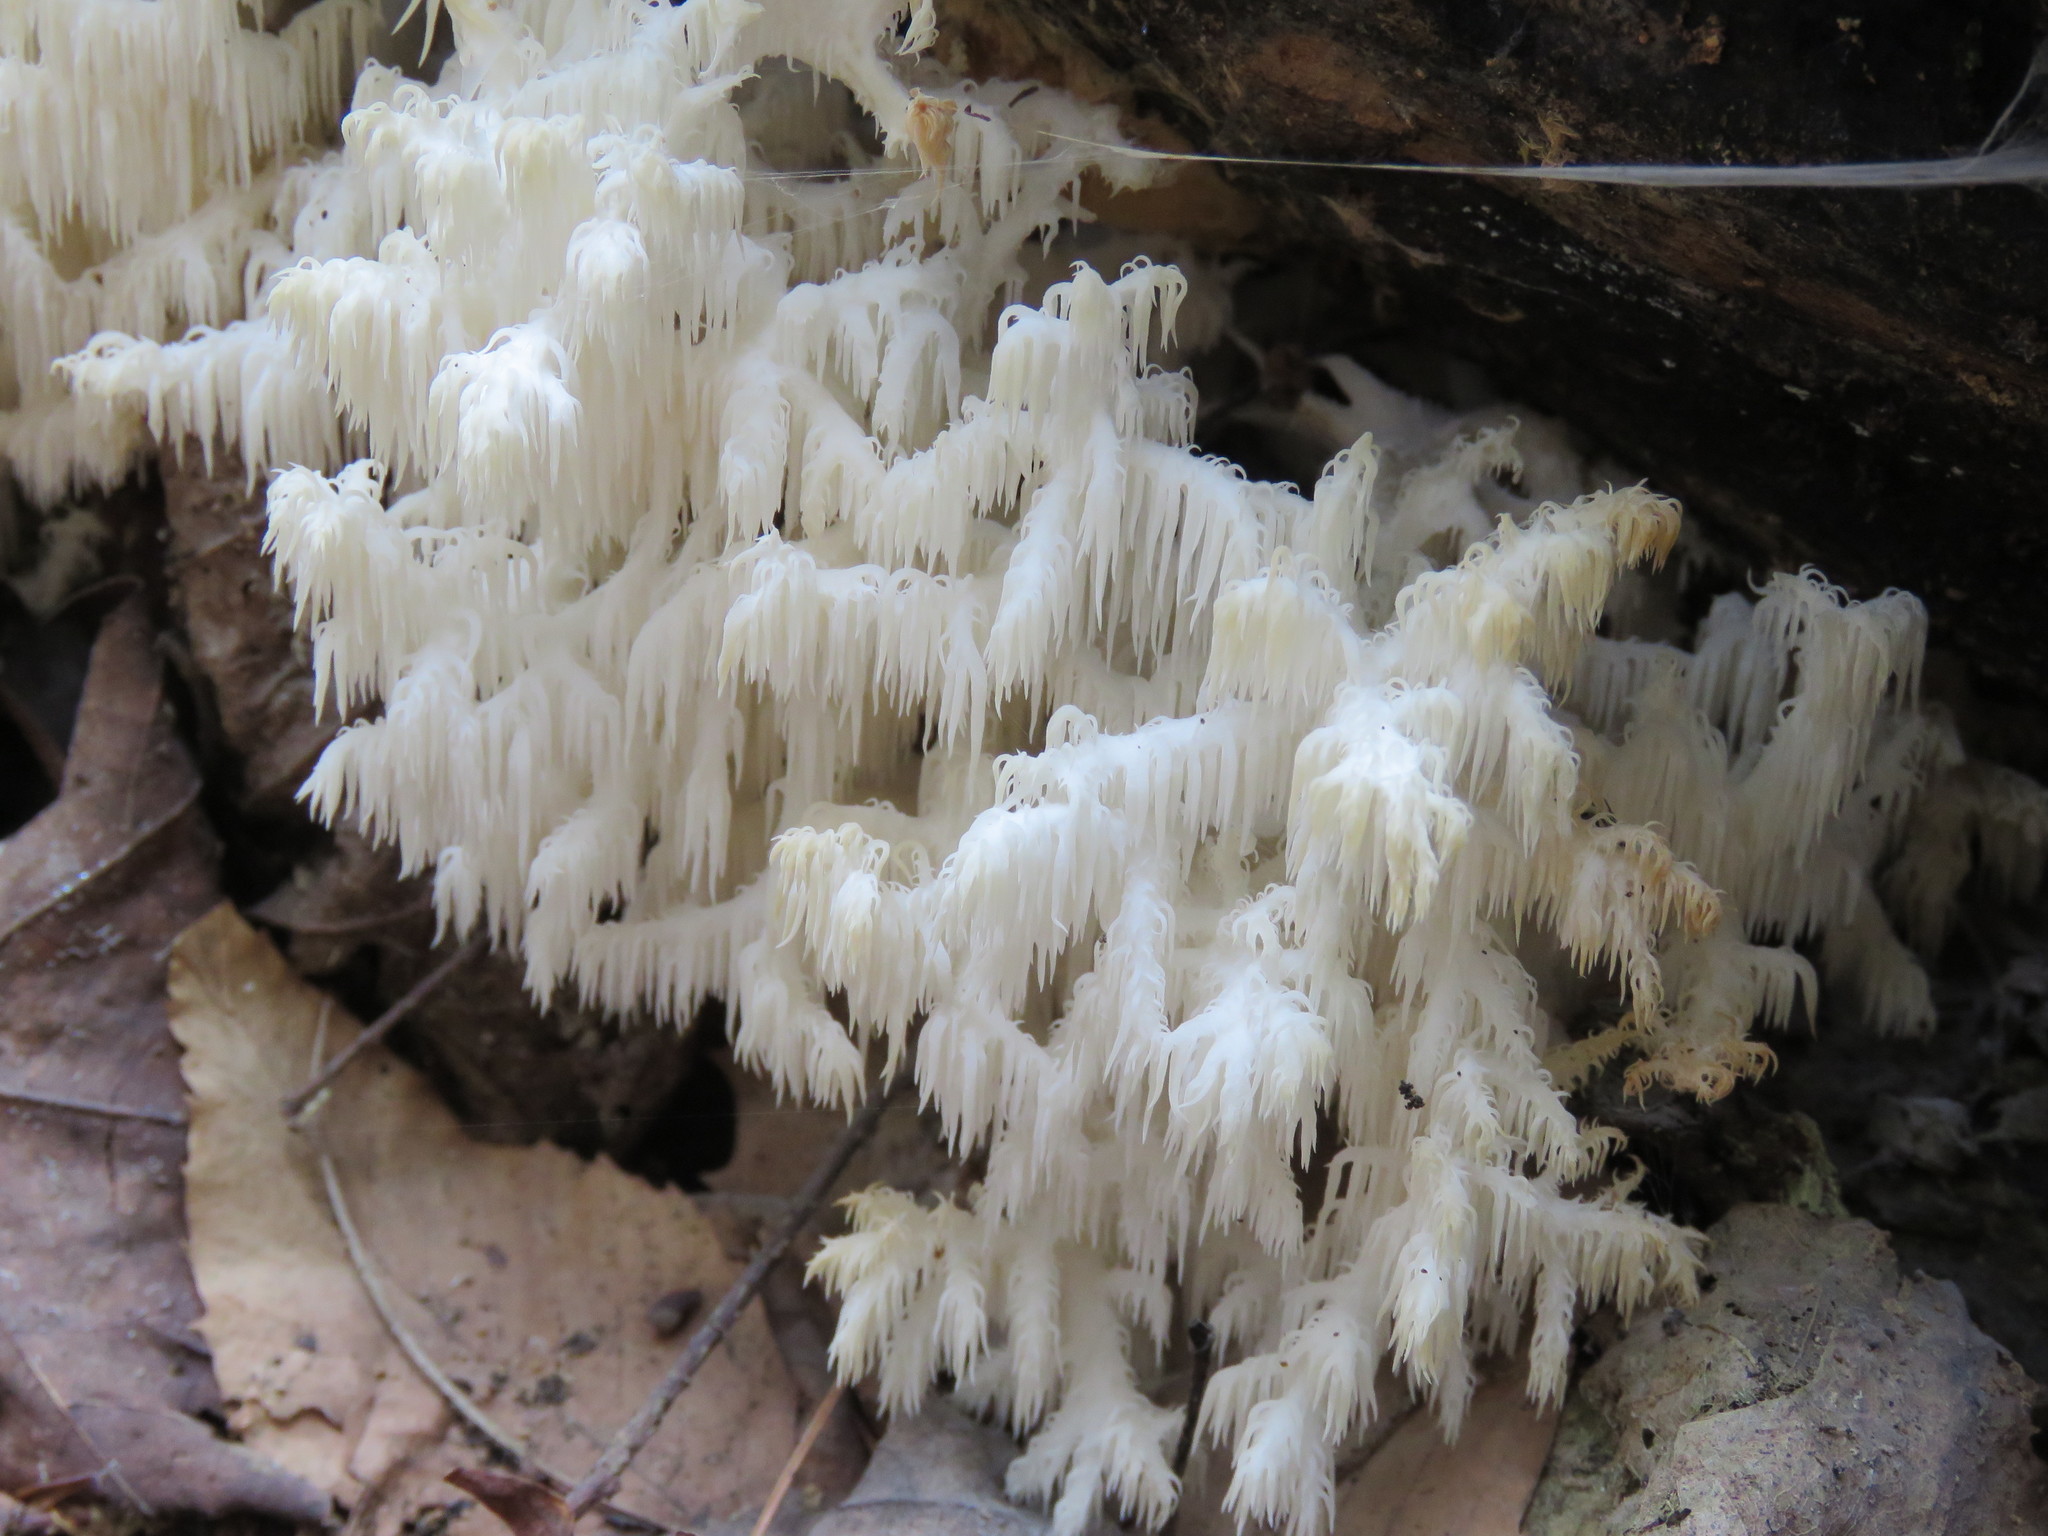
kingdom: Fungi
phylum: Basidiomycota
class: Agaricomycetes
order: Russulales
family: Hericiaceae
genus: Hericium
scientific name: Hericium coralloides
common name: Coral tooth
